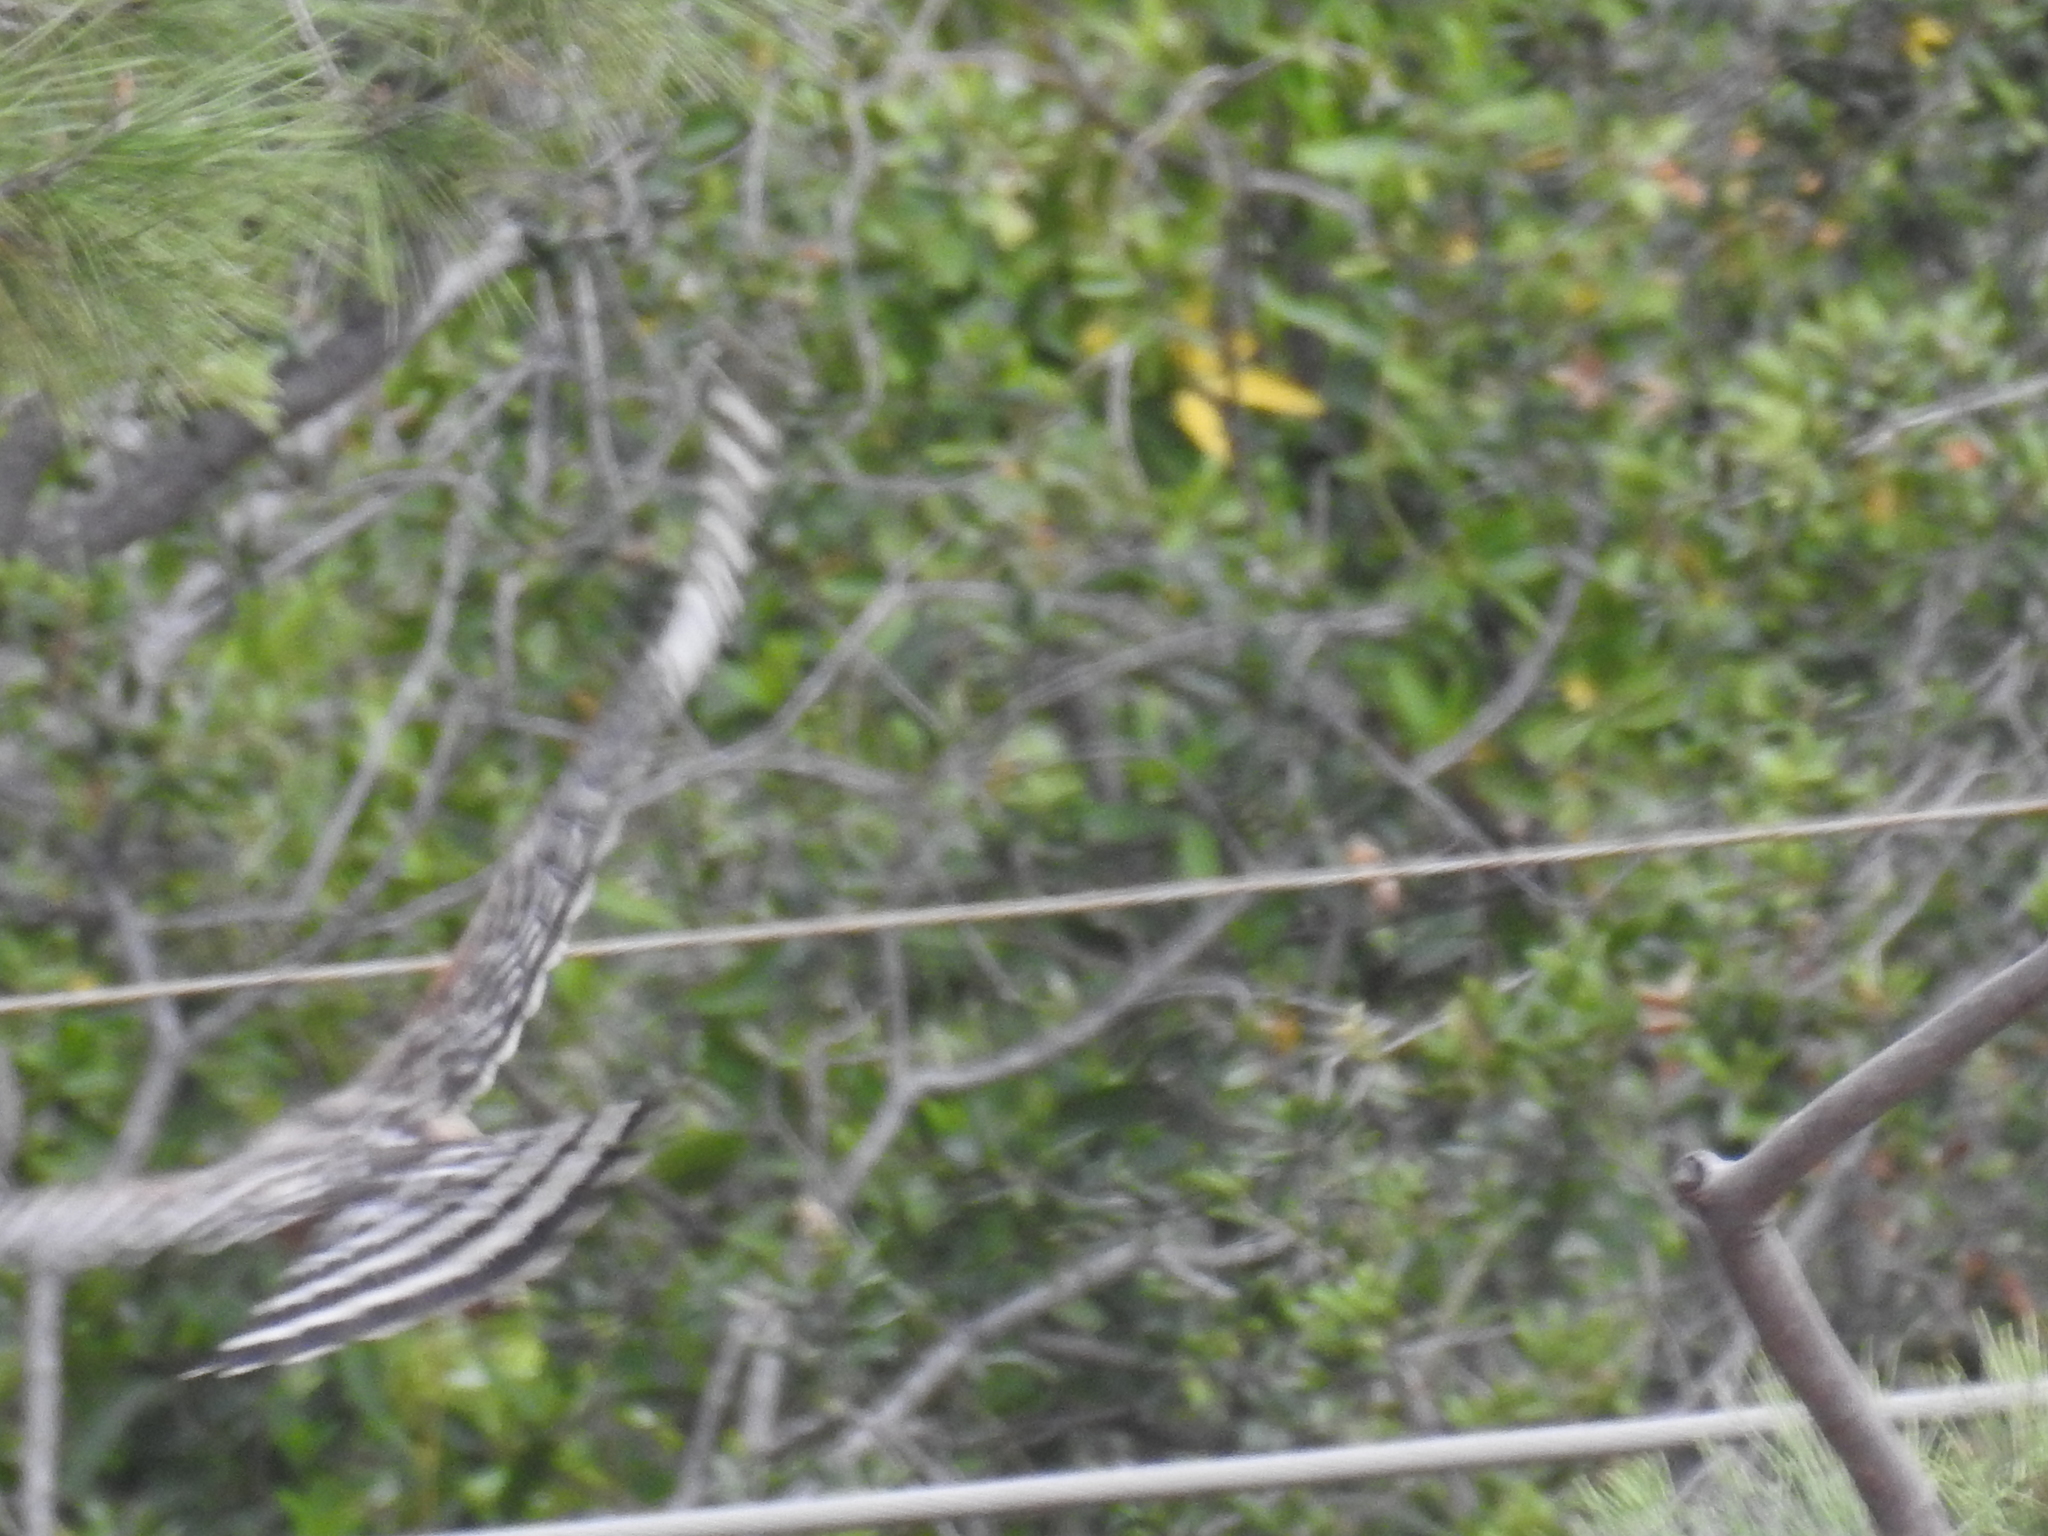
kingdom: Animalia
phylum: Chordata
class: Aves
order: Accipitriformes
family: Accipitridae
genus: Buteo
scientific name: Buteo lineatus
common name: Red-shouldered hawk
